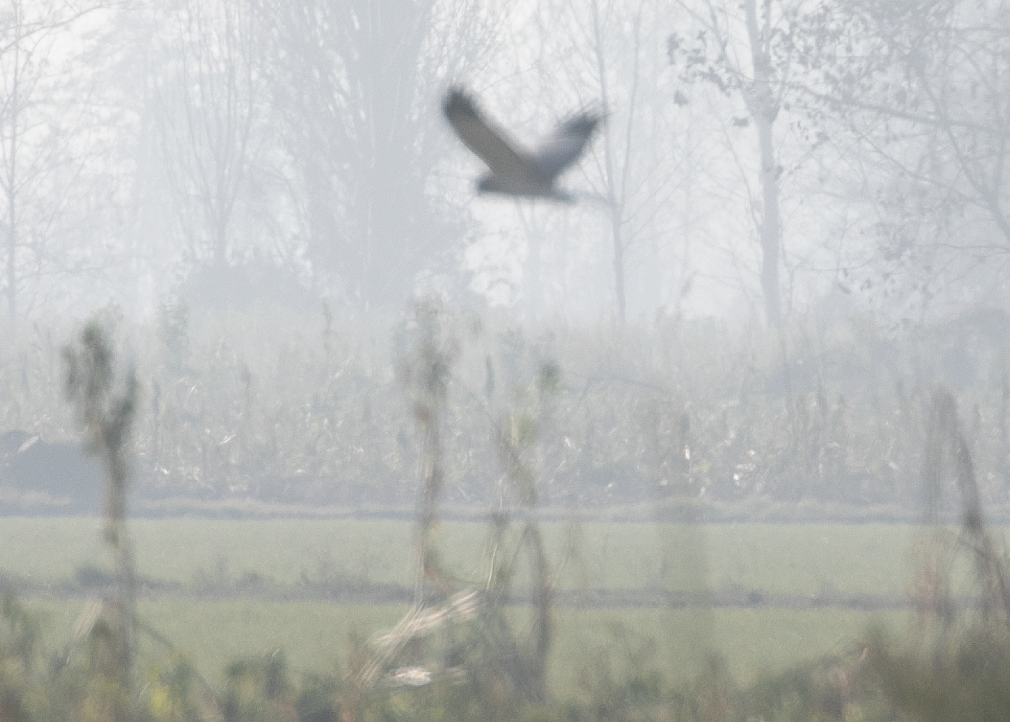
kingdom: Animalia
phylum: Chordata
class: Aves
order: Accipitriformes
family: Accipitridae
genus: Circus
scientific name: Circus cyaneus
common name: Hen harrier
